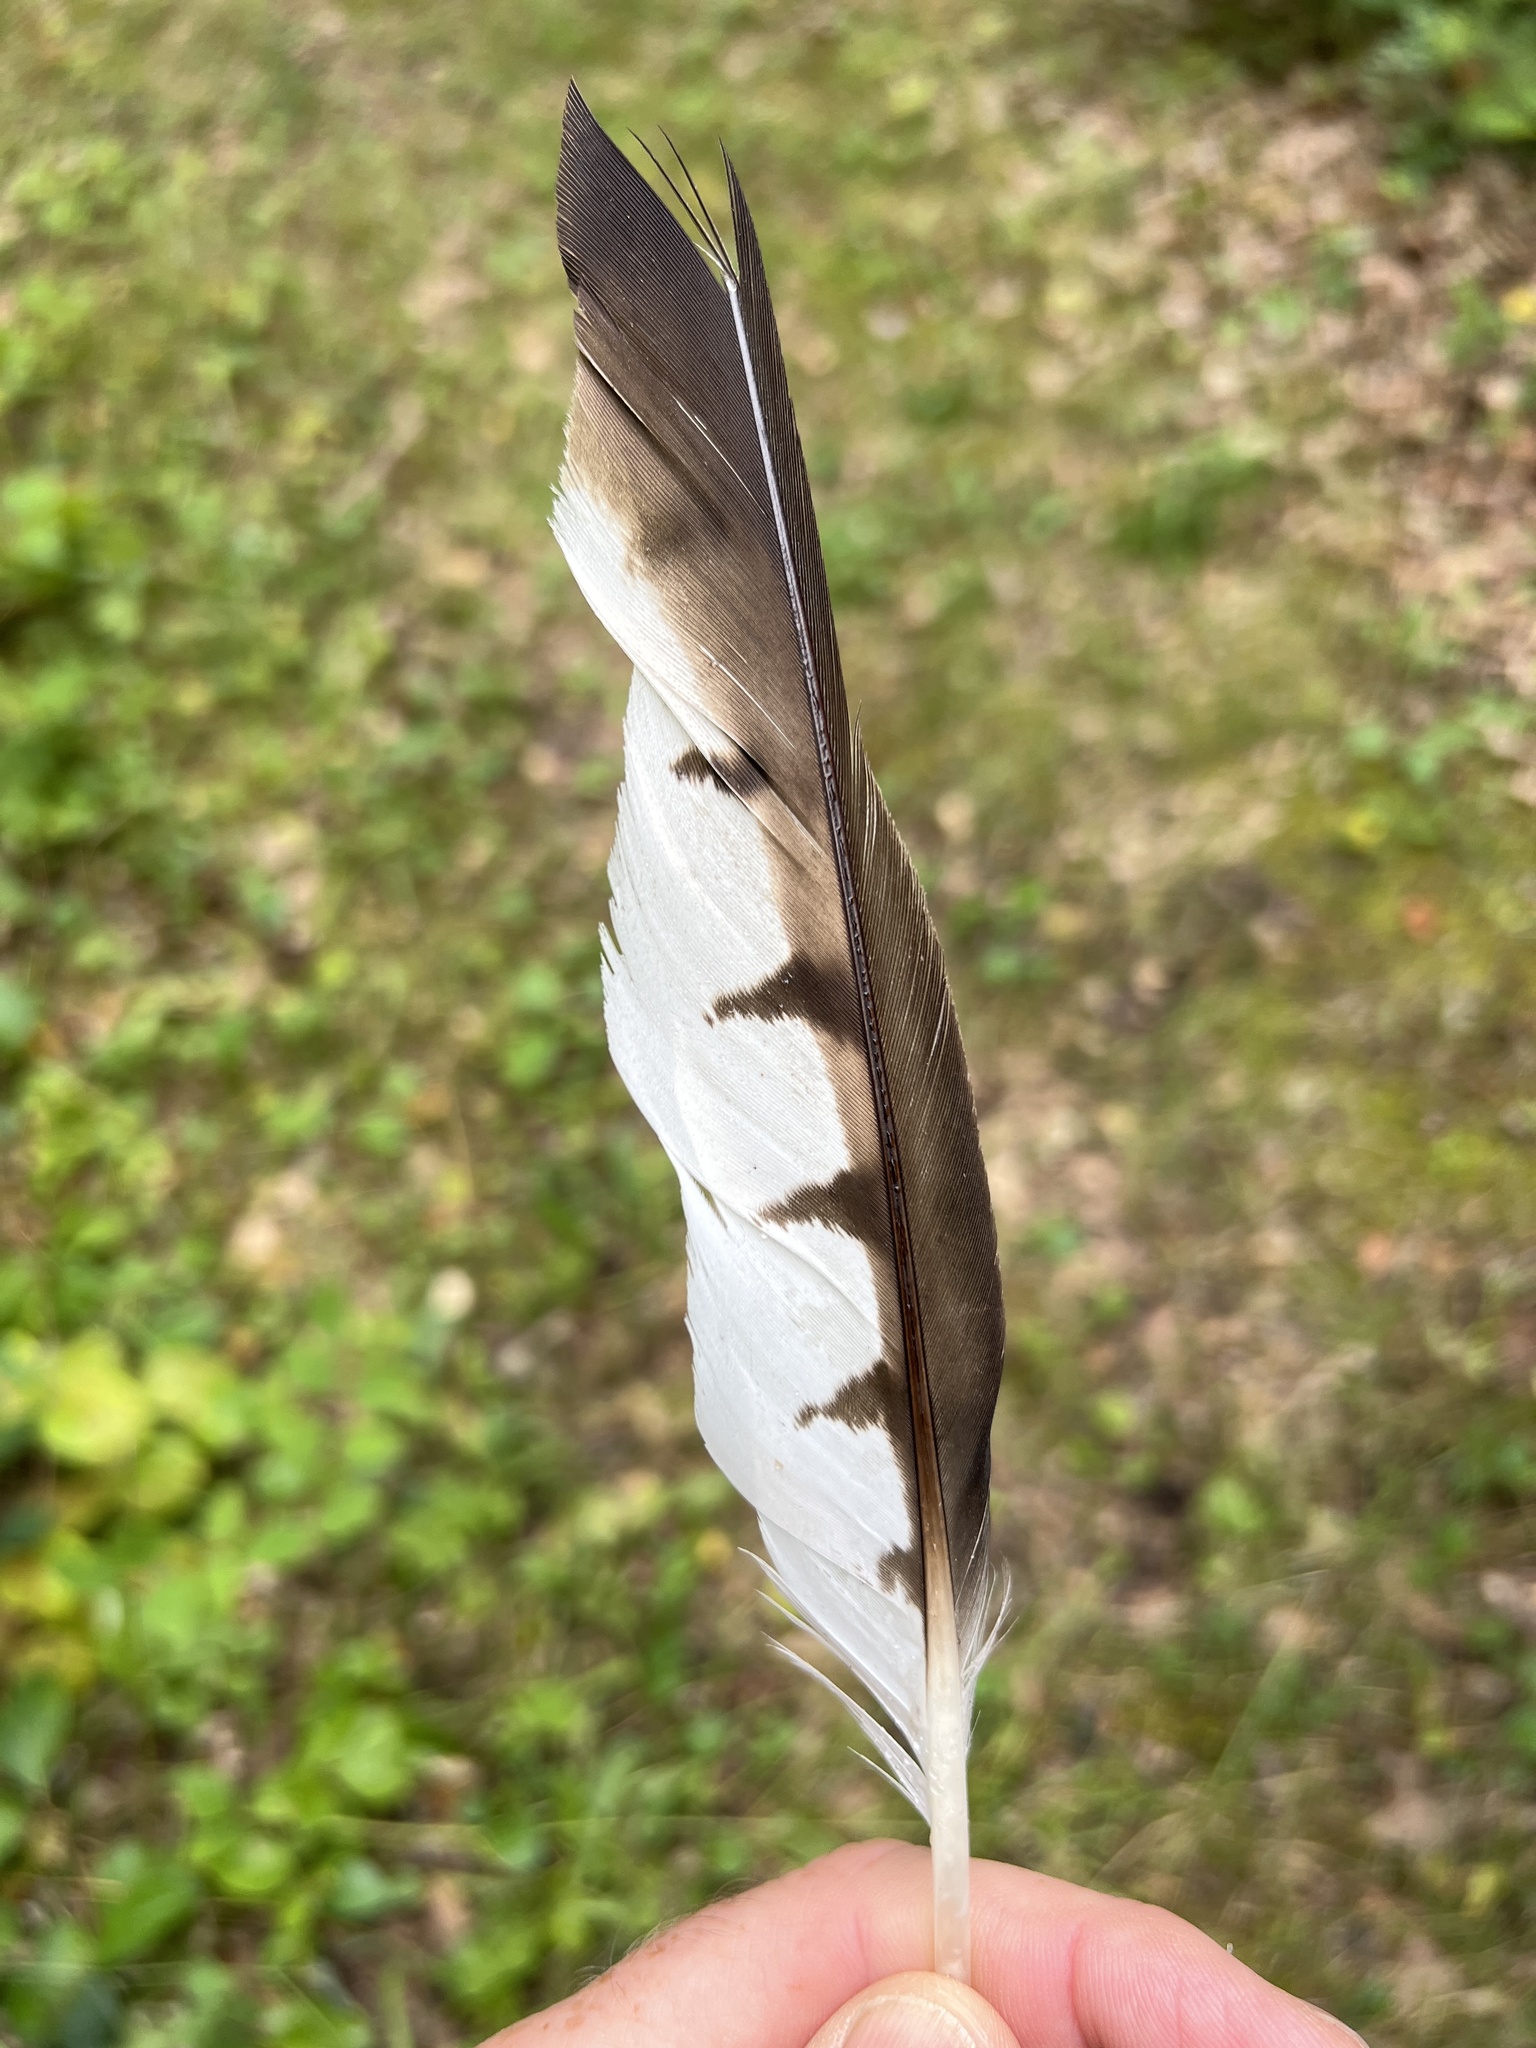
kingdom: Animalia
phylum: Chordata
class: Aves
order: Accipitriformes
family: Accipitridae
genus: Buteo
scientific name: Buteo platypterus
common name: Broad-winged hawk
